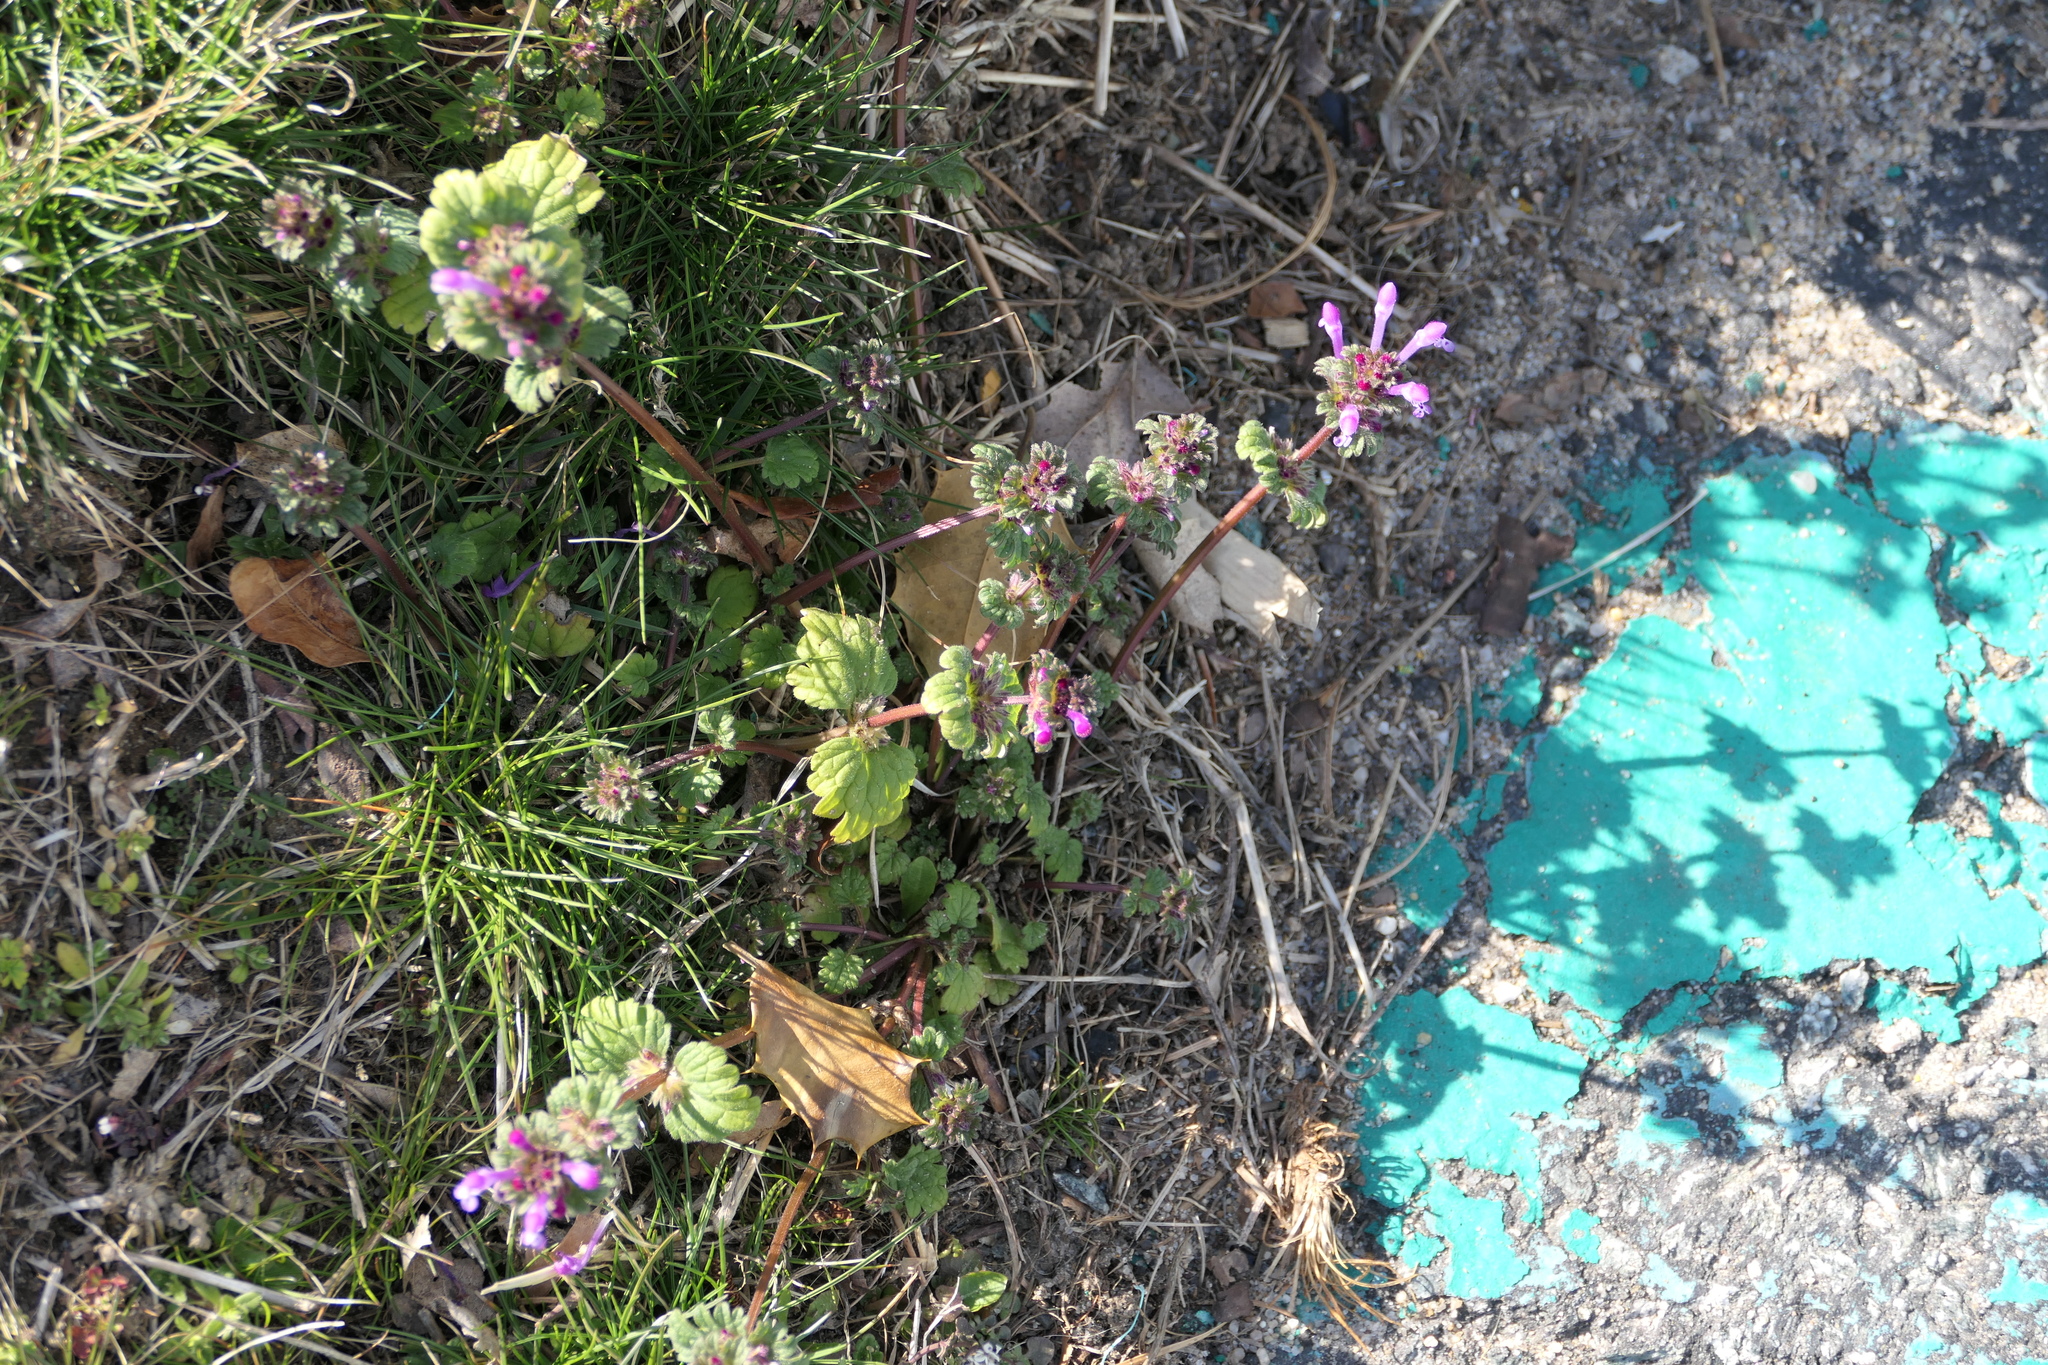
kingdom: Plantae
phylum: Tracheophyta
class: Magnoliopsida
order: Lamiales
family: Lamiaceae
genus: Lamium
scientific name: Lamium amplexicaule
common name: Henbit dead-nettle
